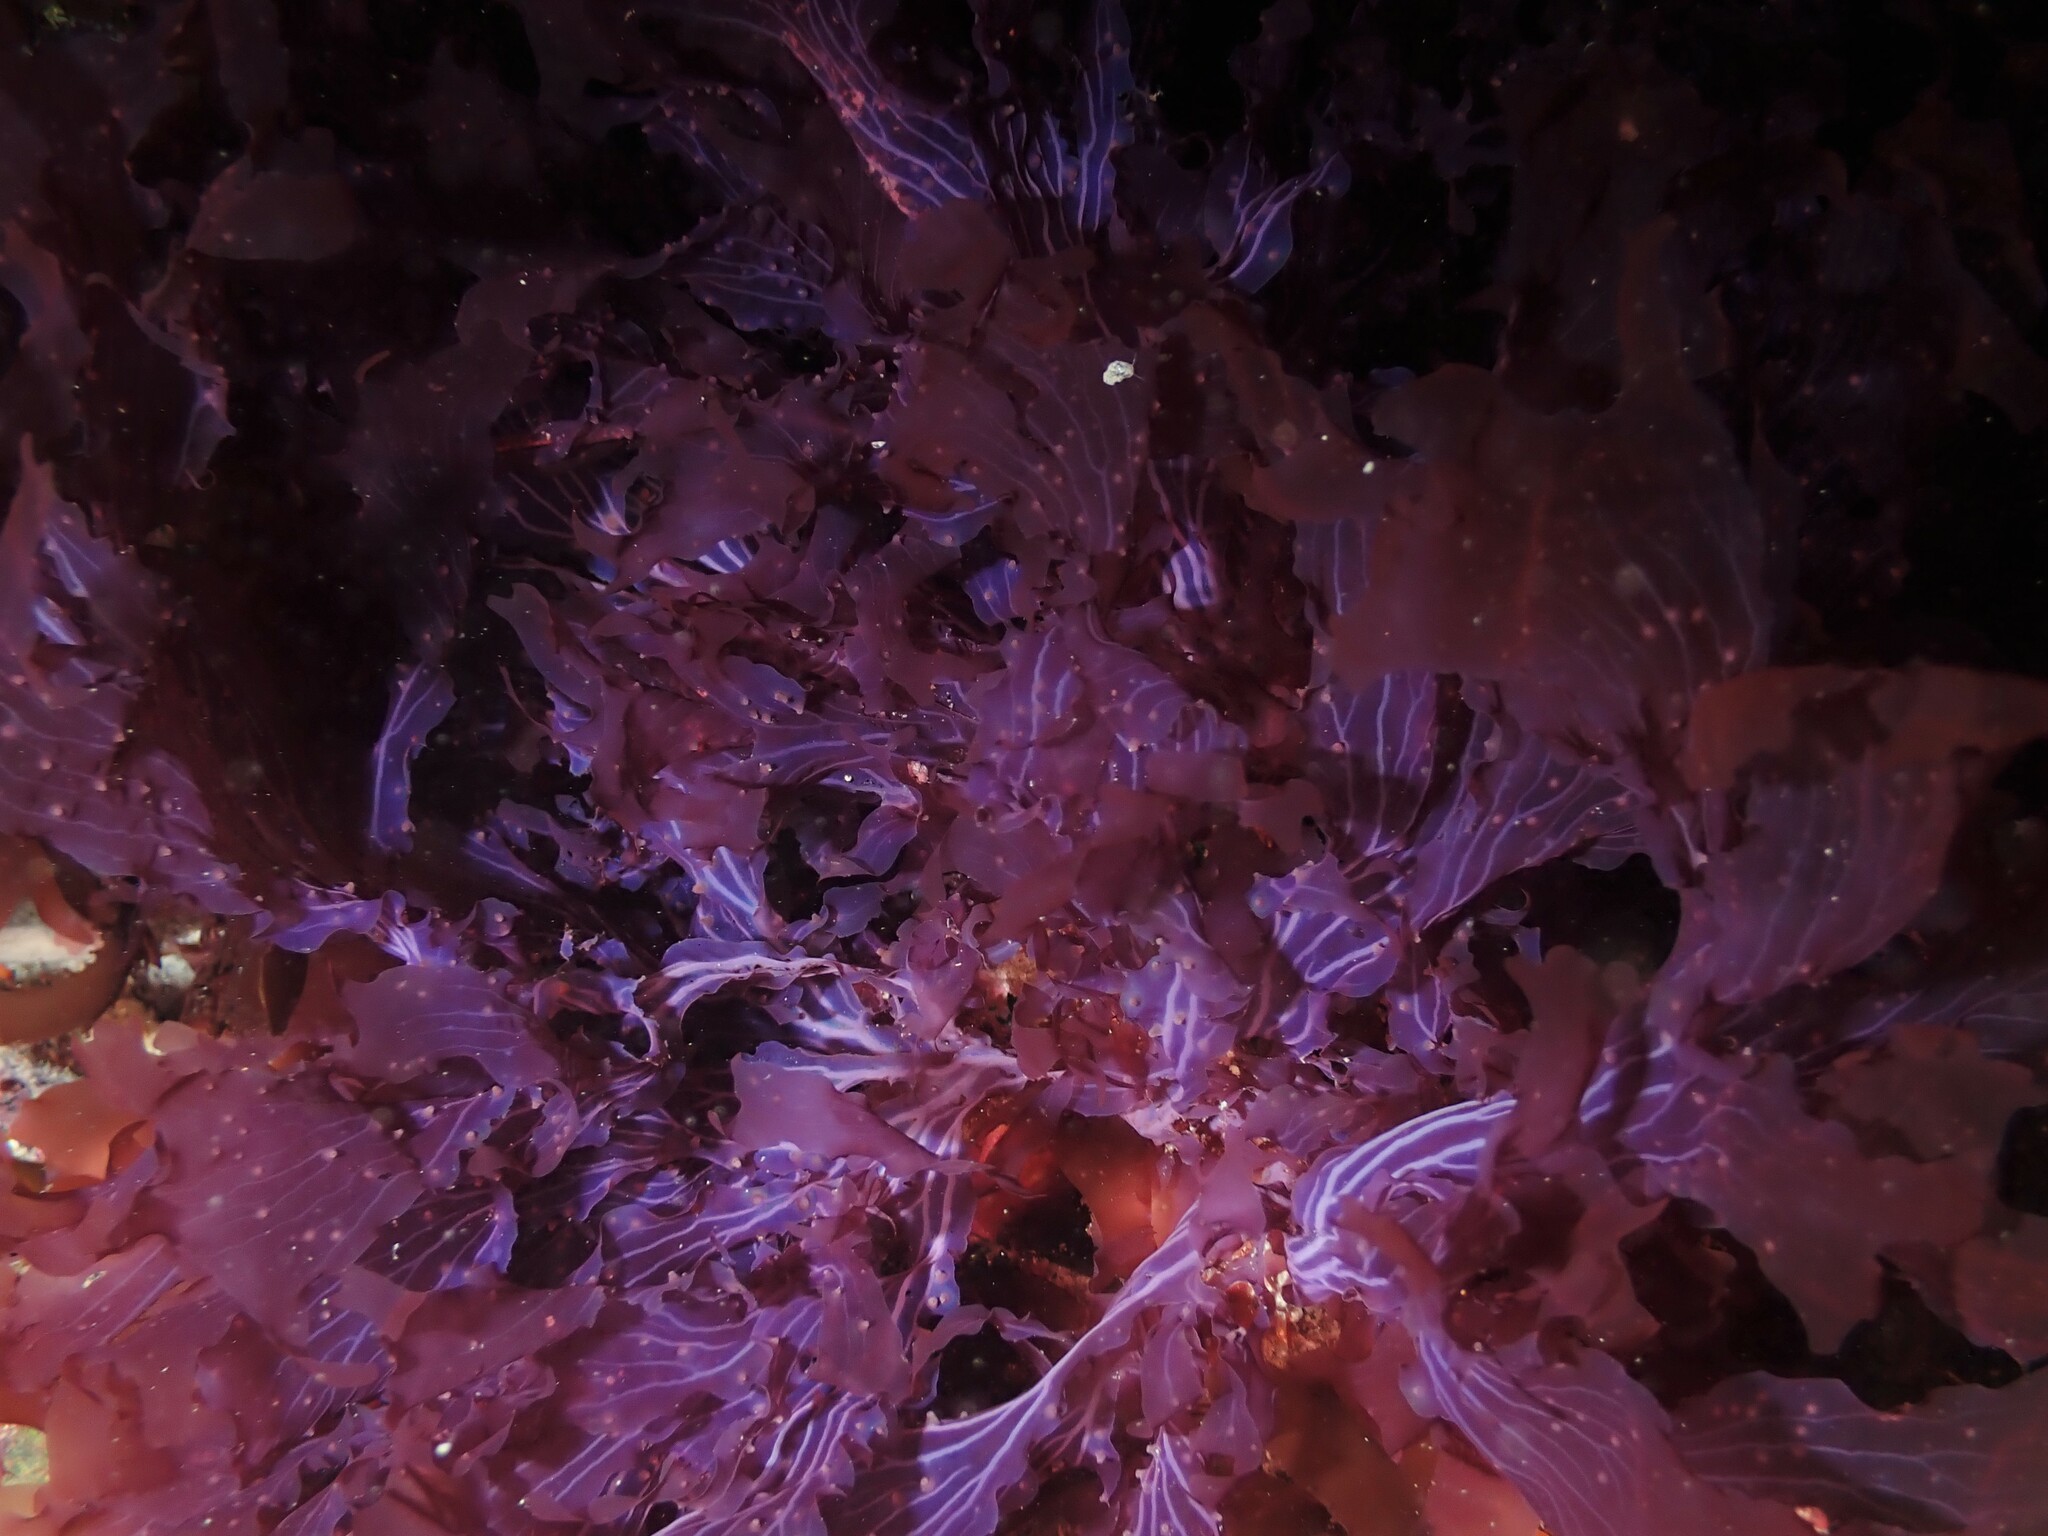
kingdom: Plantae
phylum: Rhodophyta
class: Florideophyceae
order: Ceramiales
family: Delesseriaceae
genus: Schizoseris
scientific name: Schizoseris dichotoma
